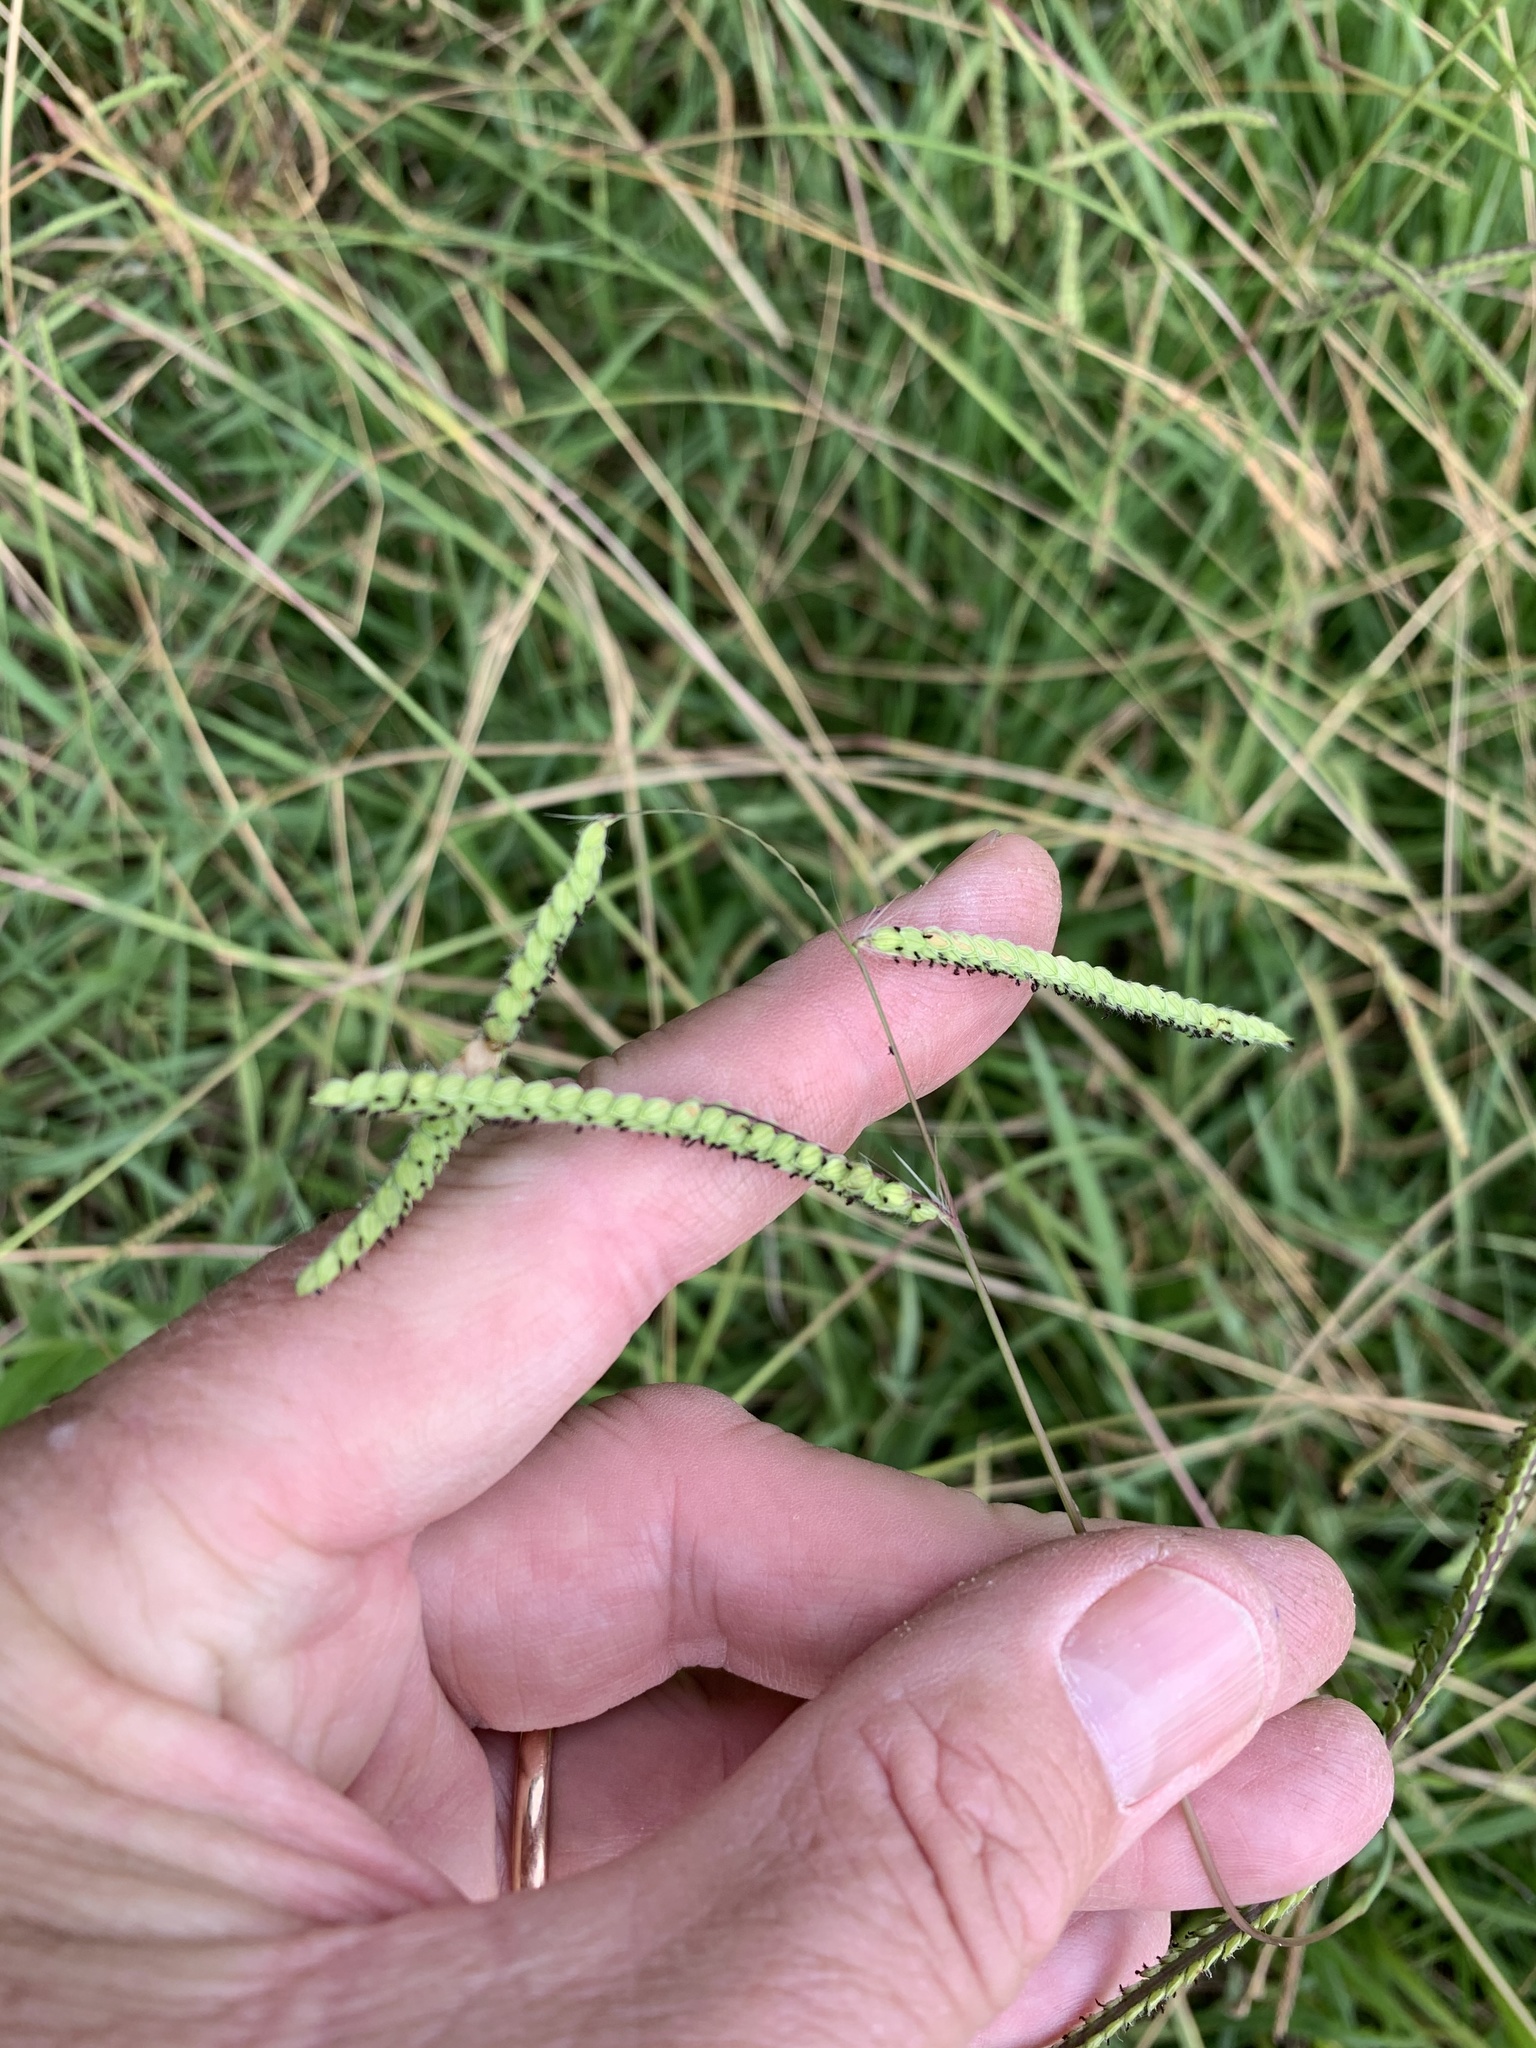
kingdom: Plantae
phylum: Tracheophyta
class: Liliopsida
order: Poales
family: Poaceae
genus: Paspalum
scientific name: Paspalum dilatatum
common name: Dallisgrass
